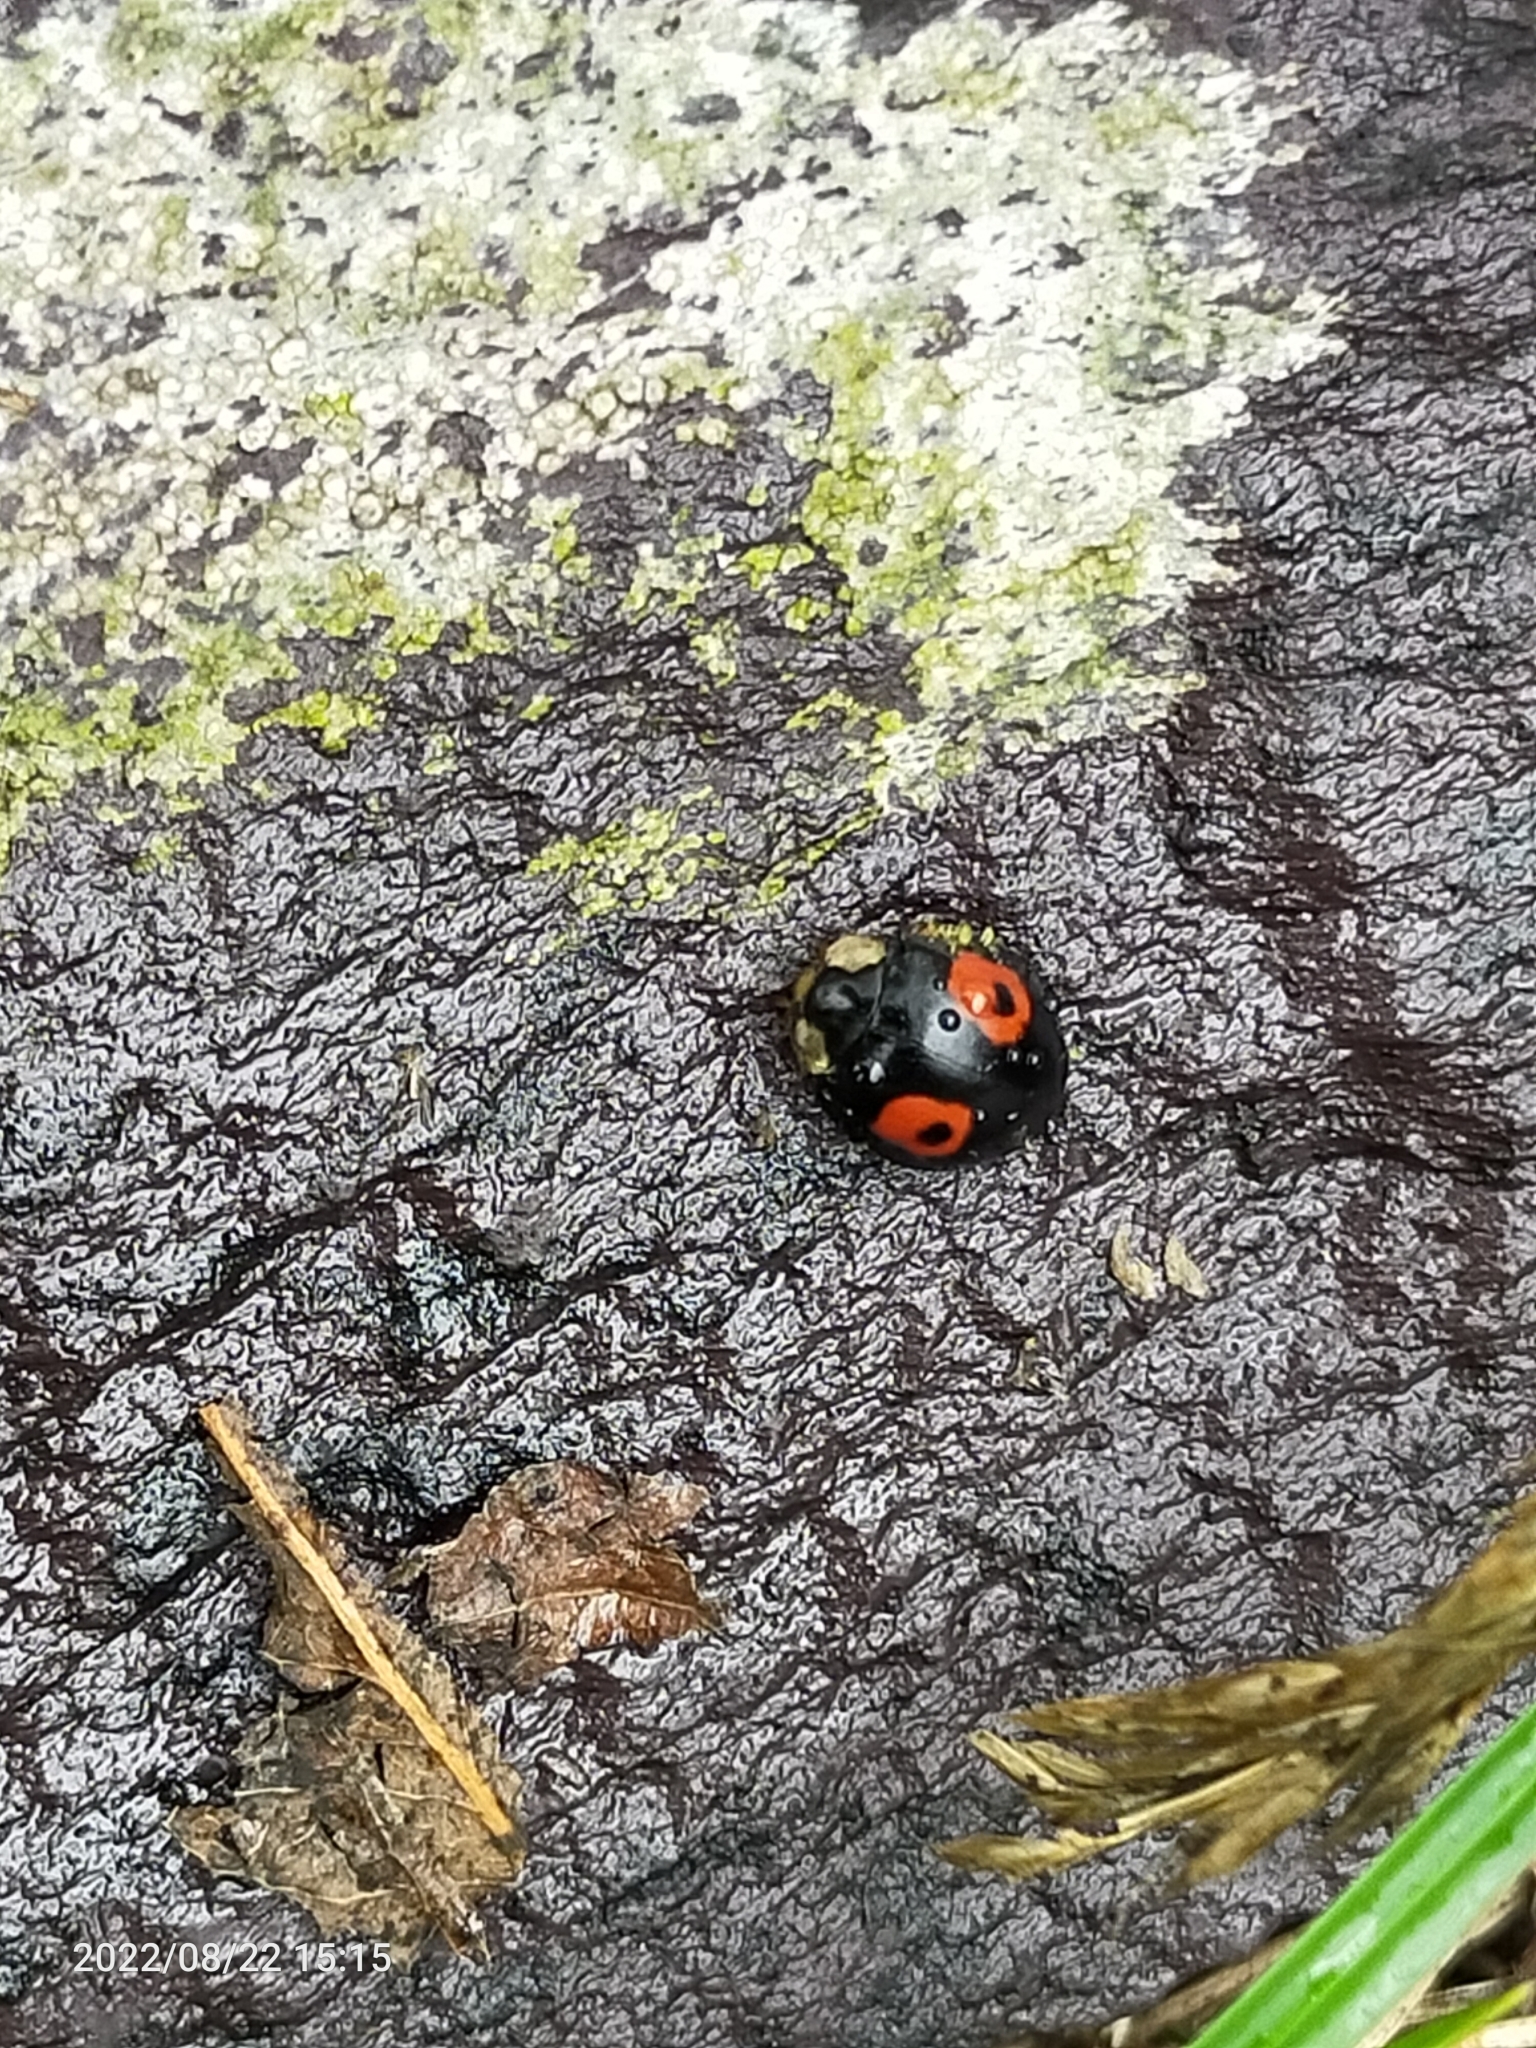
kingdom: Animalia
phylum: Arthropoda
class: Insecta
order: Coleoptera
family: Coccinellidae
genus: Harmonia
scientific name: Harmonia axyridis
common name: Harlequin ladybird
